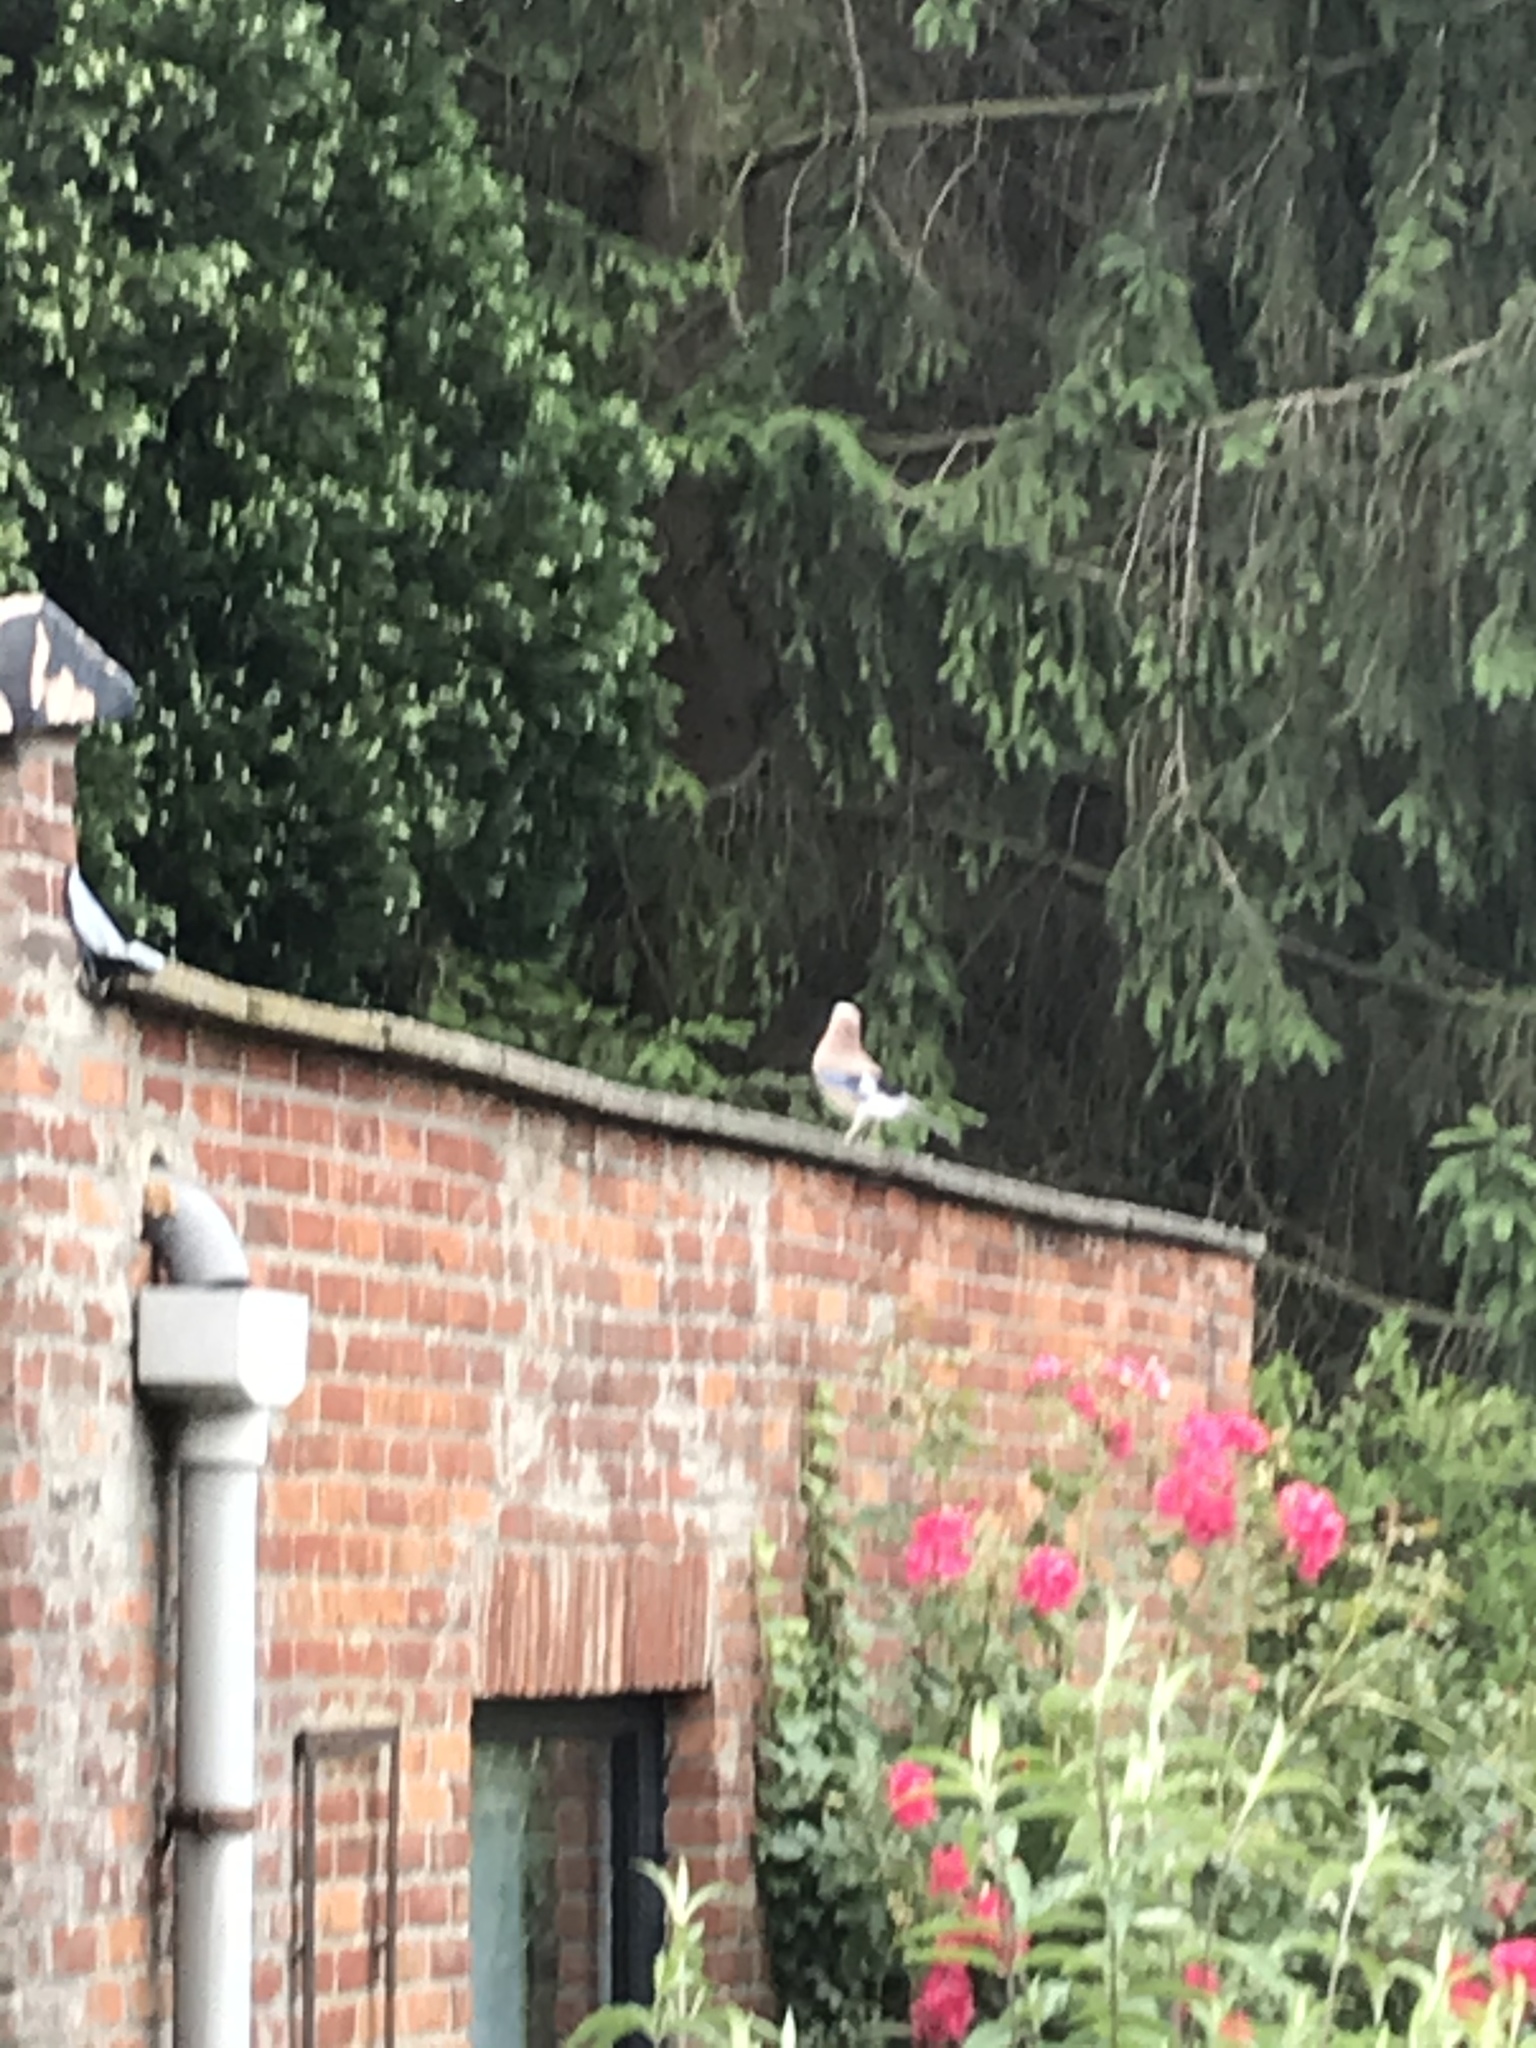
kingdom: Animalia
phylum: Chordata
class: Aves
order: Passeriformes
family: Corvidae
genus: Garrulus
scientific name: Garrulus glandarius
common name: Eurasian jay
